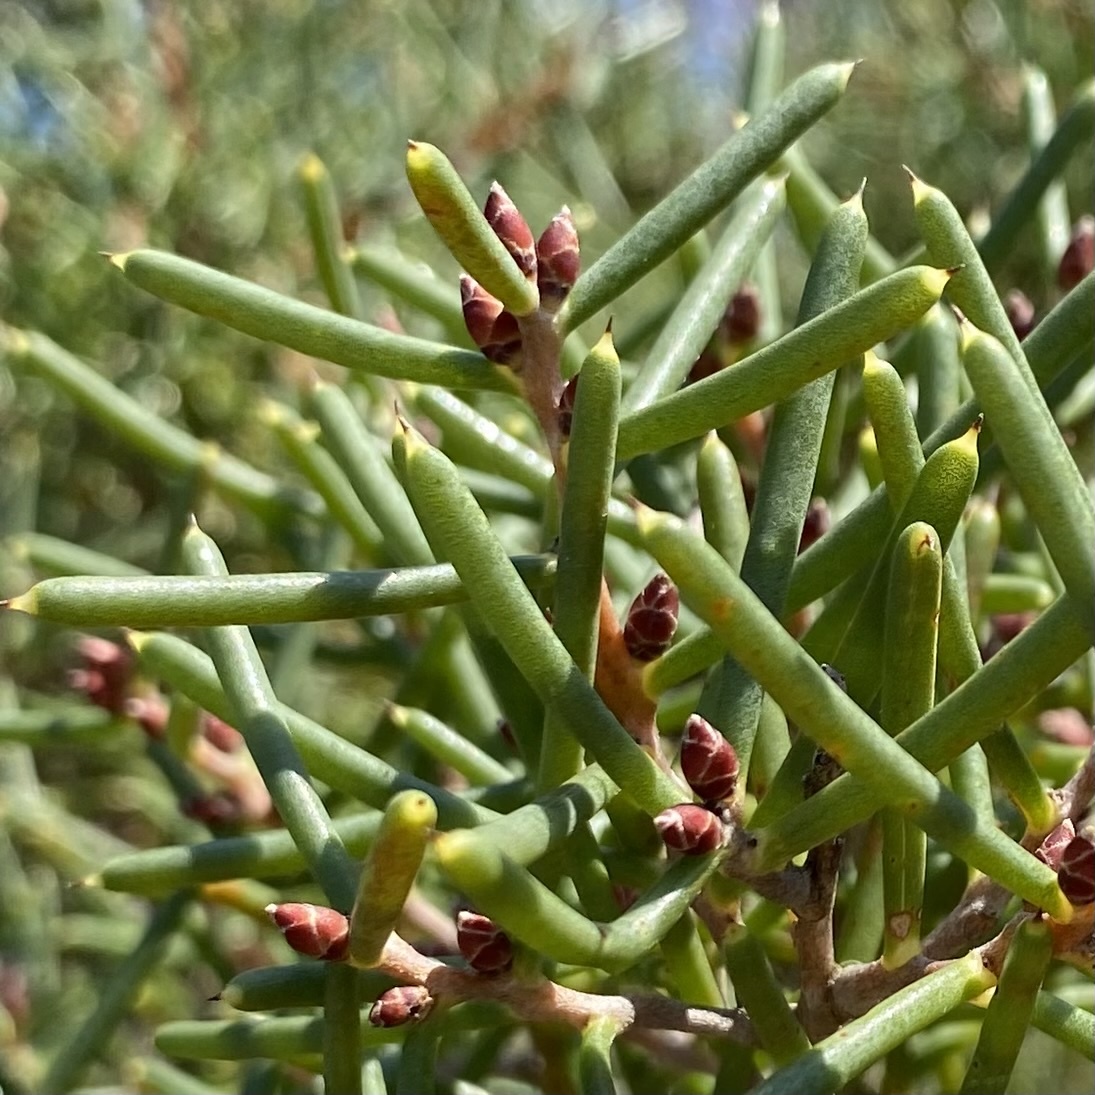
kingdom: Plantae
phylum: Tracheophyta
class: Magnoliopsida
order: Proteales
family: Proteaceae
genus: Hakea
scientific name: Hakea teretifolia
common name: Dagger hakea
